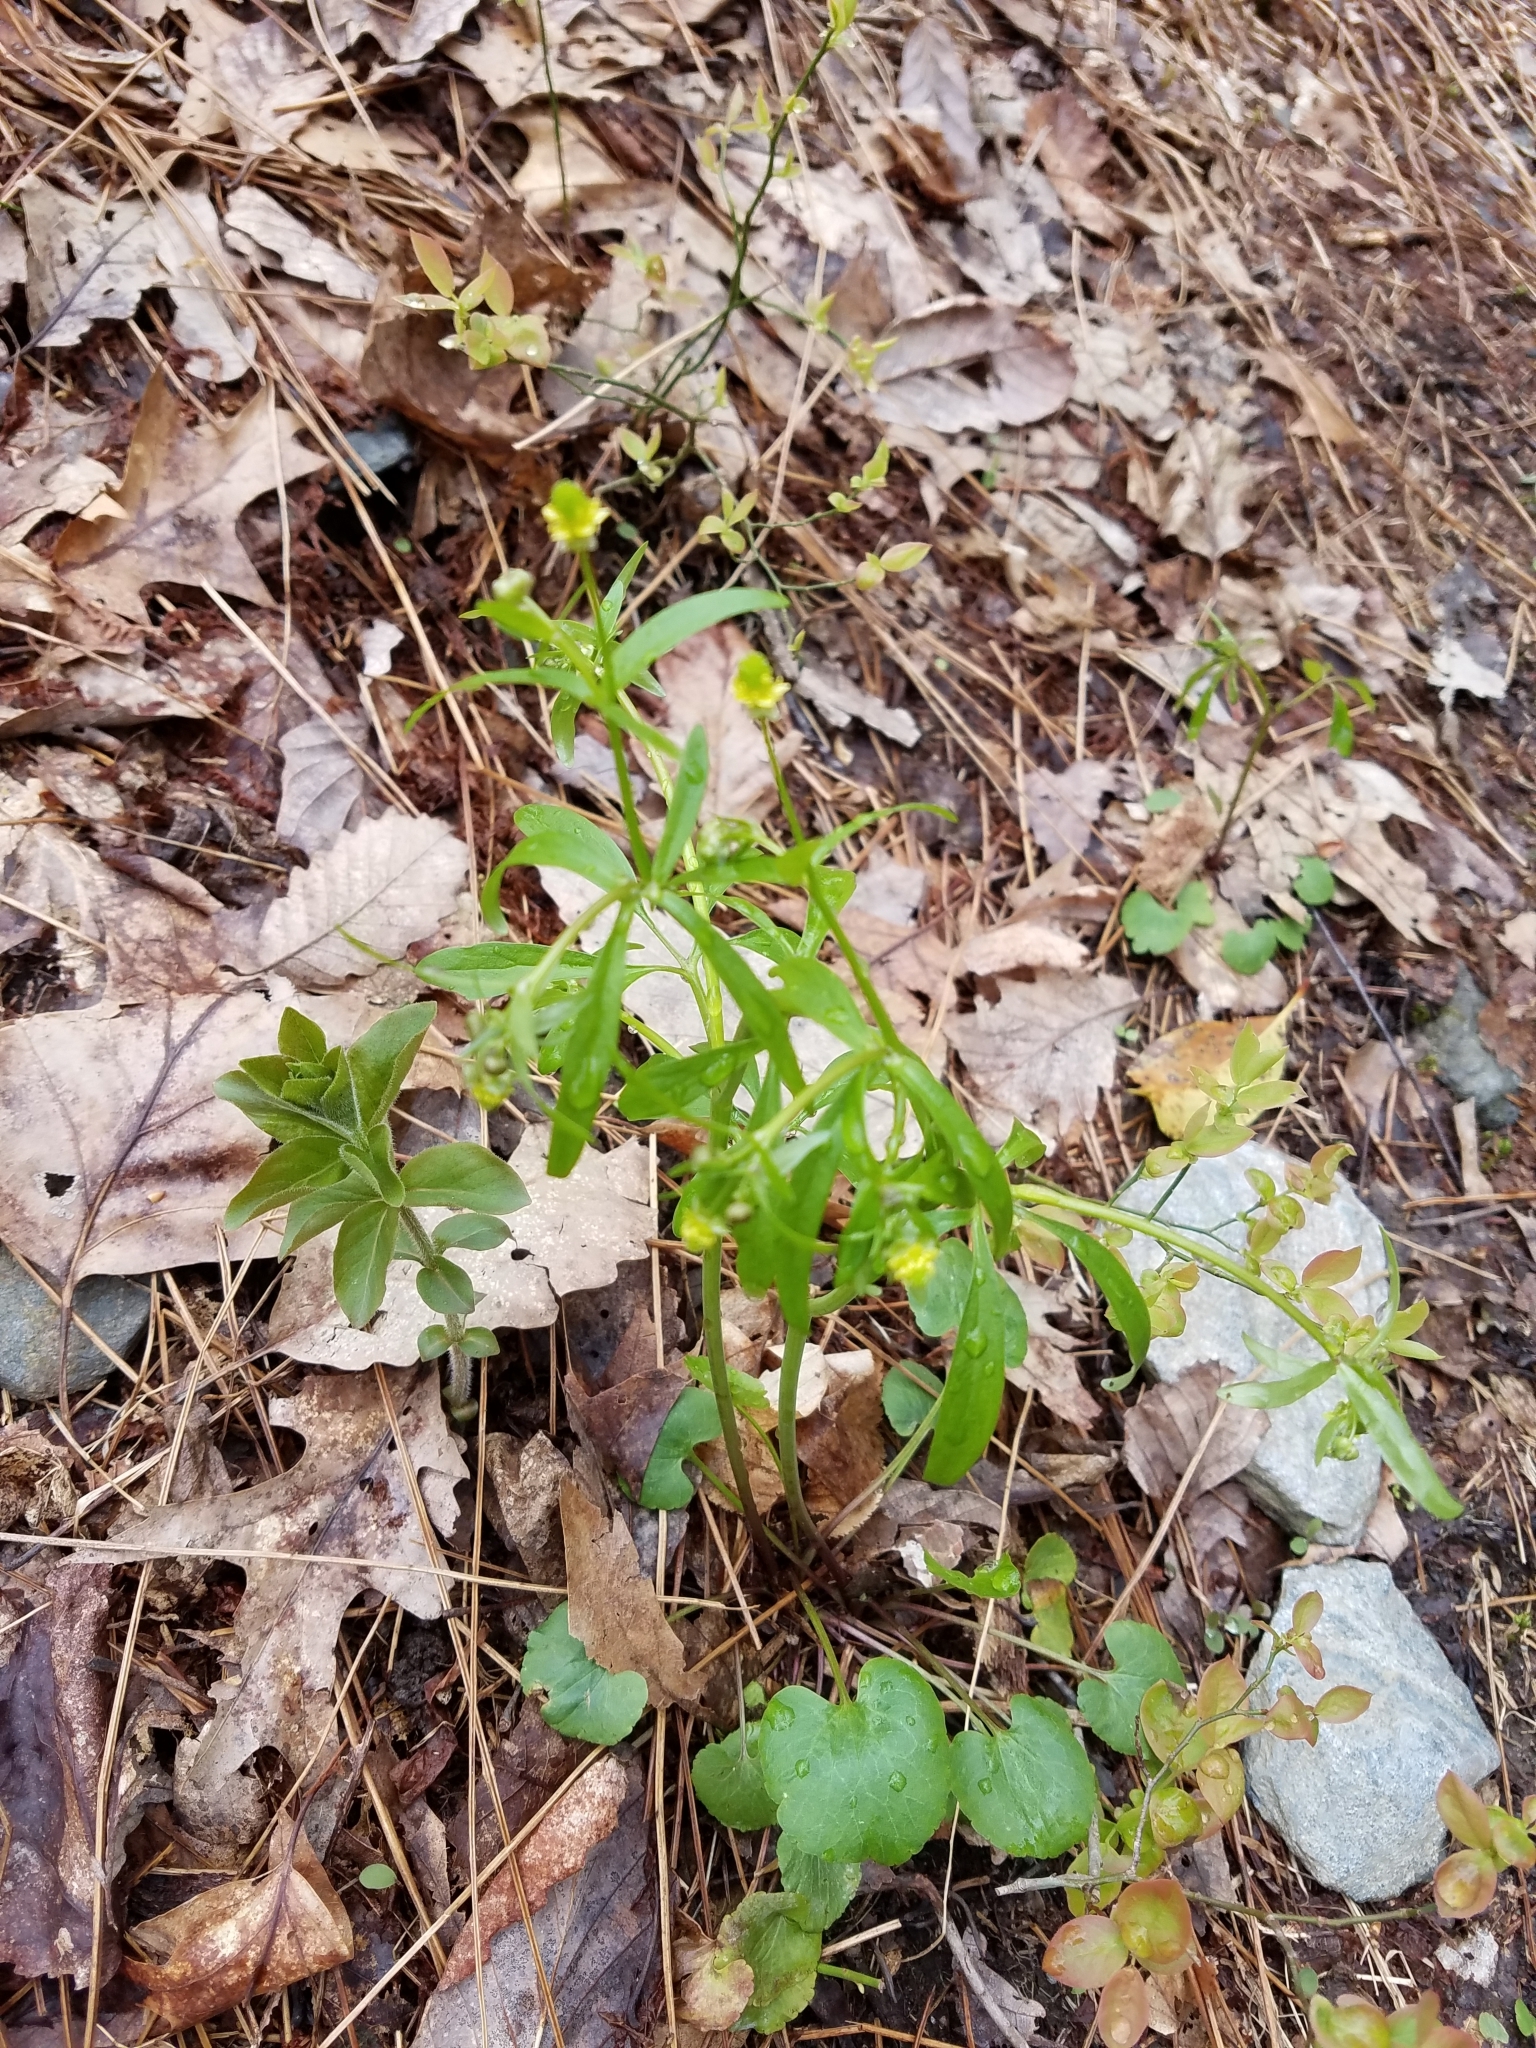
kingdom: Plantae
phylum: Tracheophyta
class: Magnoliopsida
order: Ranunculales
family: Ranunculaceae
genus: Ranunculus
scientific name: Ranunculus abortivus
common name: Early wood buttercup
